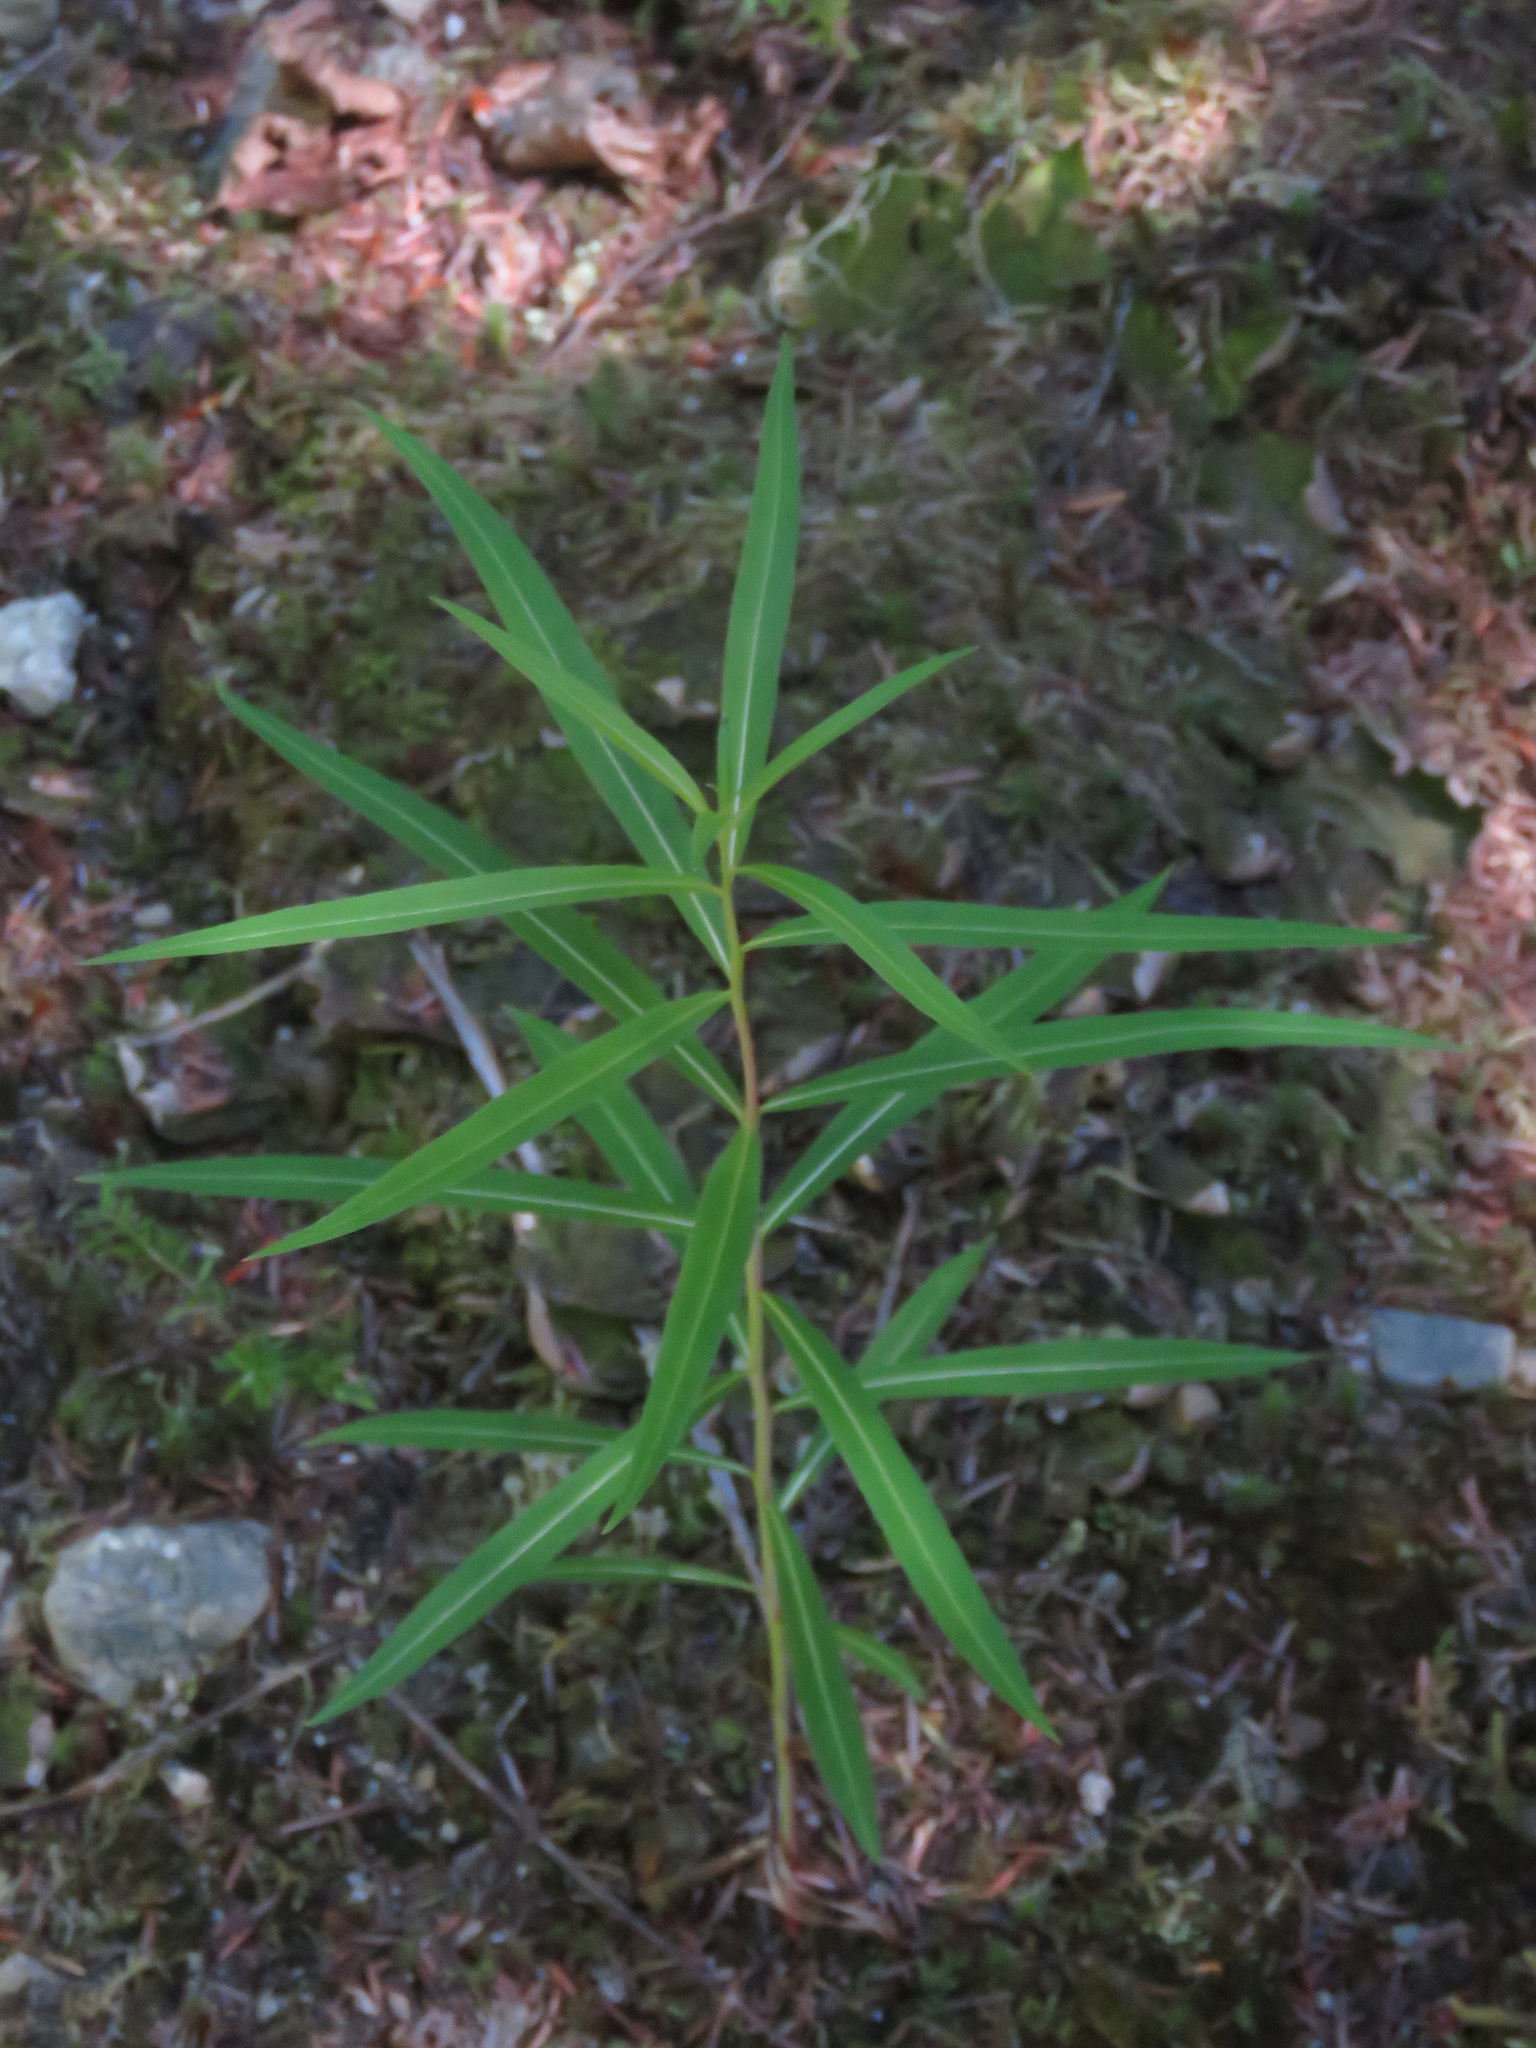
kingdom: Plantae
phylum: Tracheophyta
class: Magnoliopsida
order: Myrtales
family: Onagraceae
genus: Chamaenerion
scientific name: Chamaenerion angustifolium
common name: Fireweed
